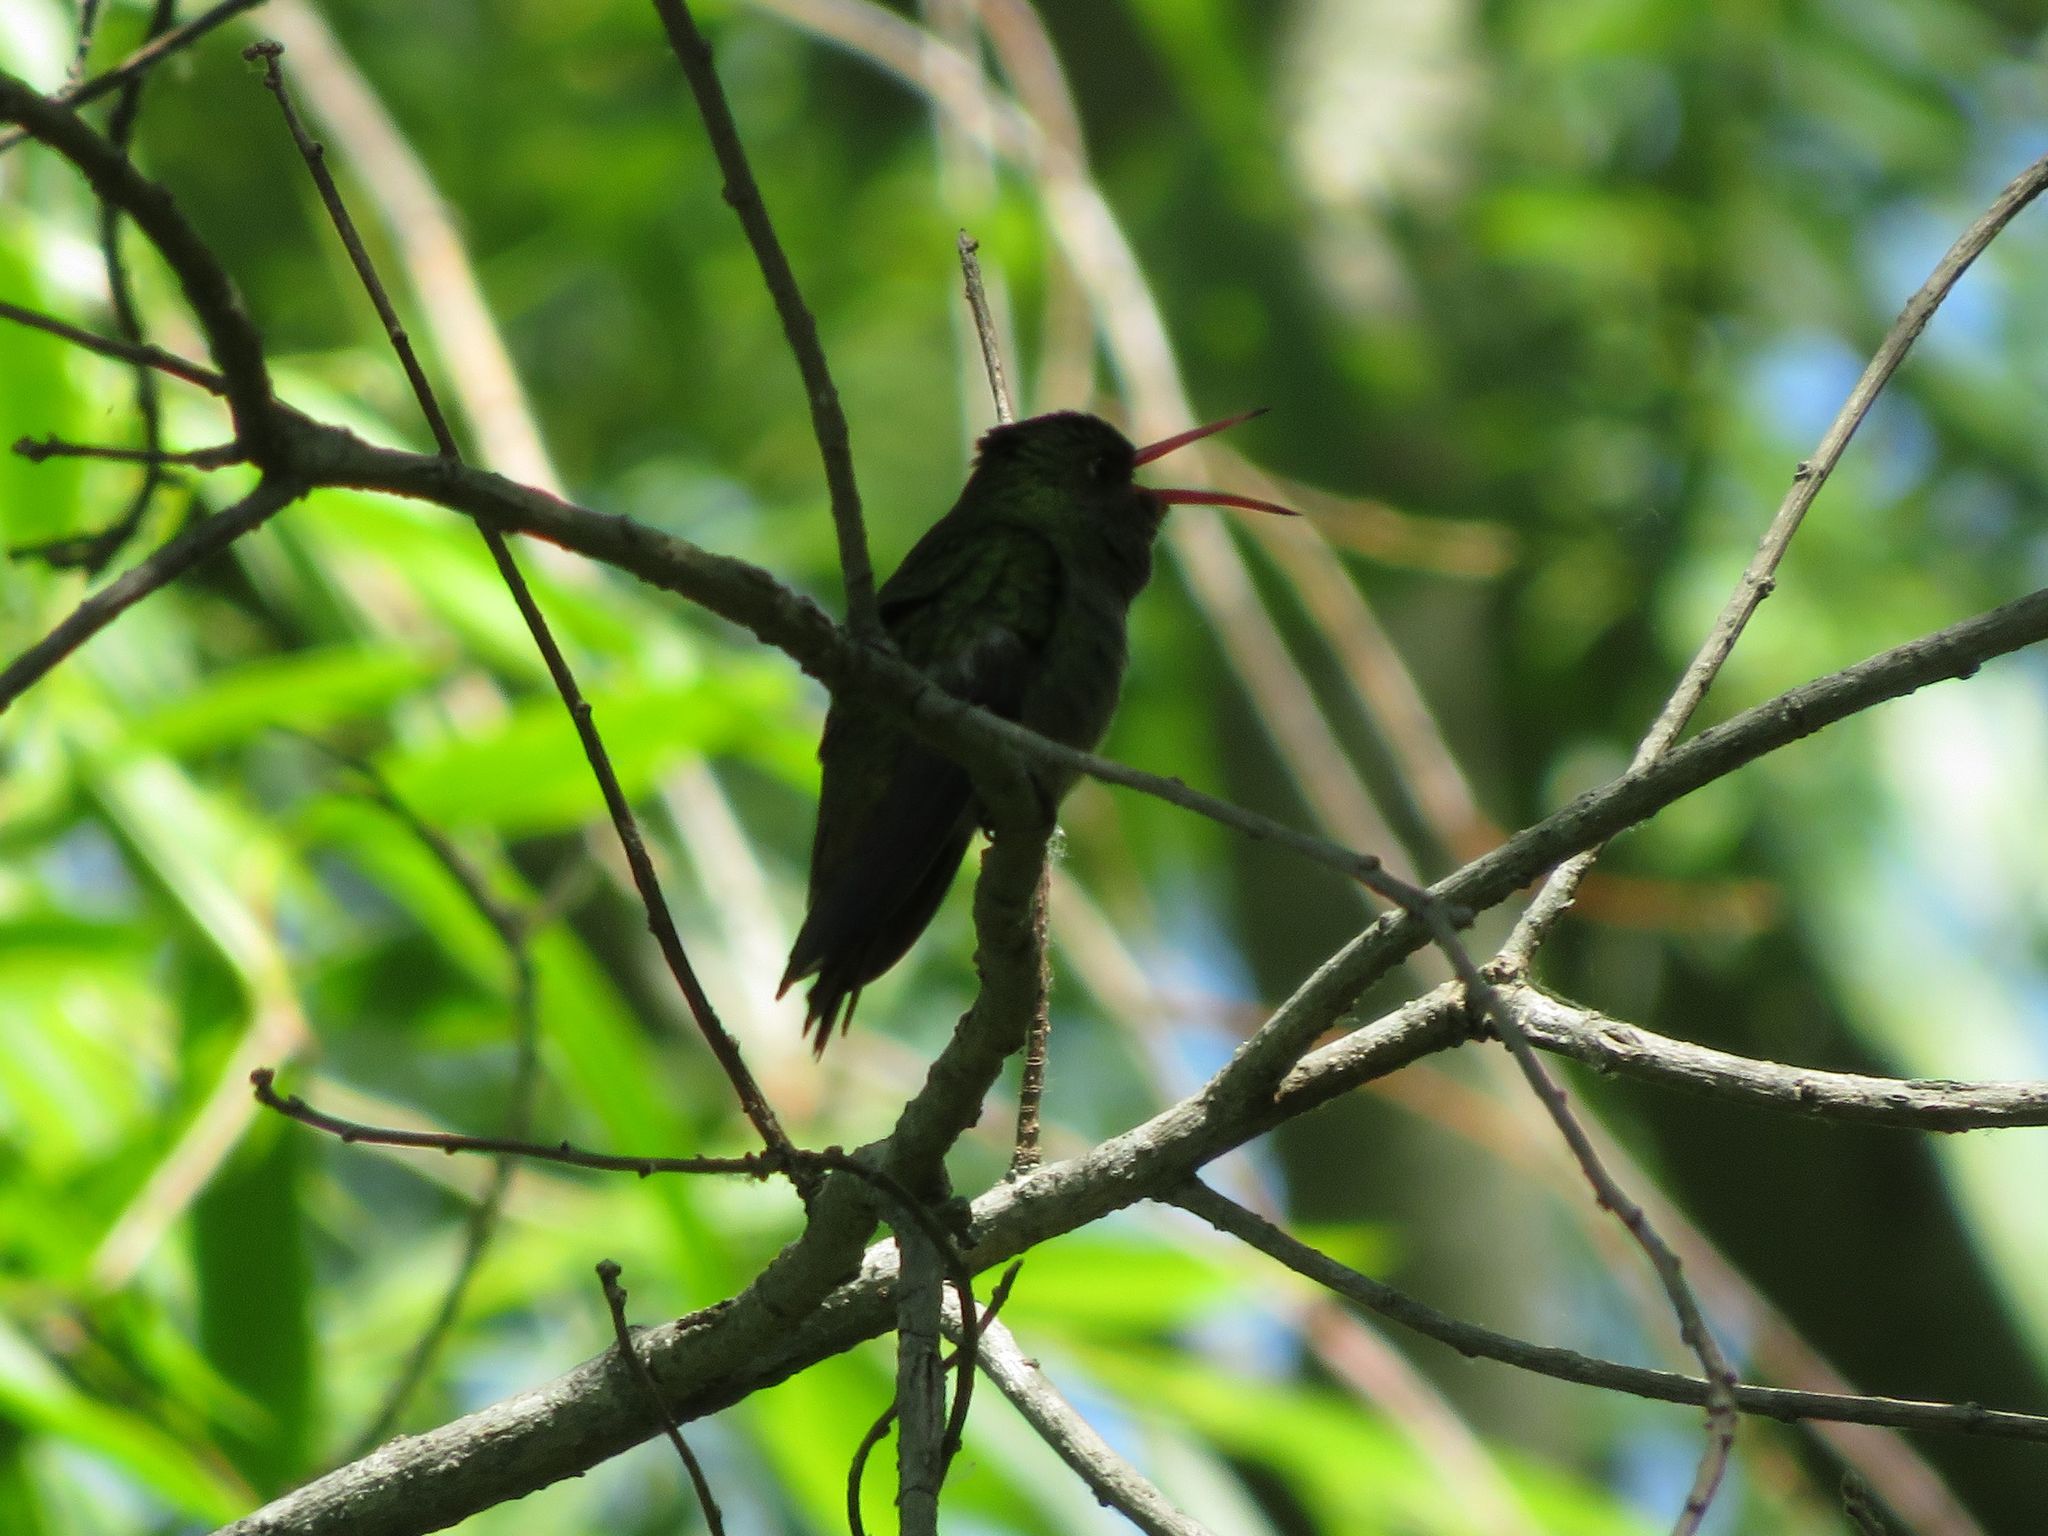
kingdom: Animalia
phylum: Chordata
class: Aves
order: Apodiformes
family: Trochilidae
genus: Hylocharis
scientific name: Hylocharis chrysura
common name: Gilded sapphire
